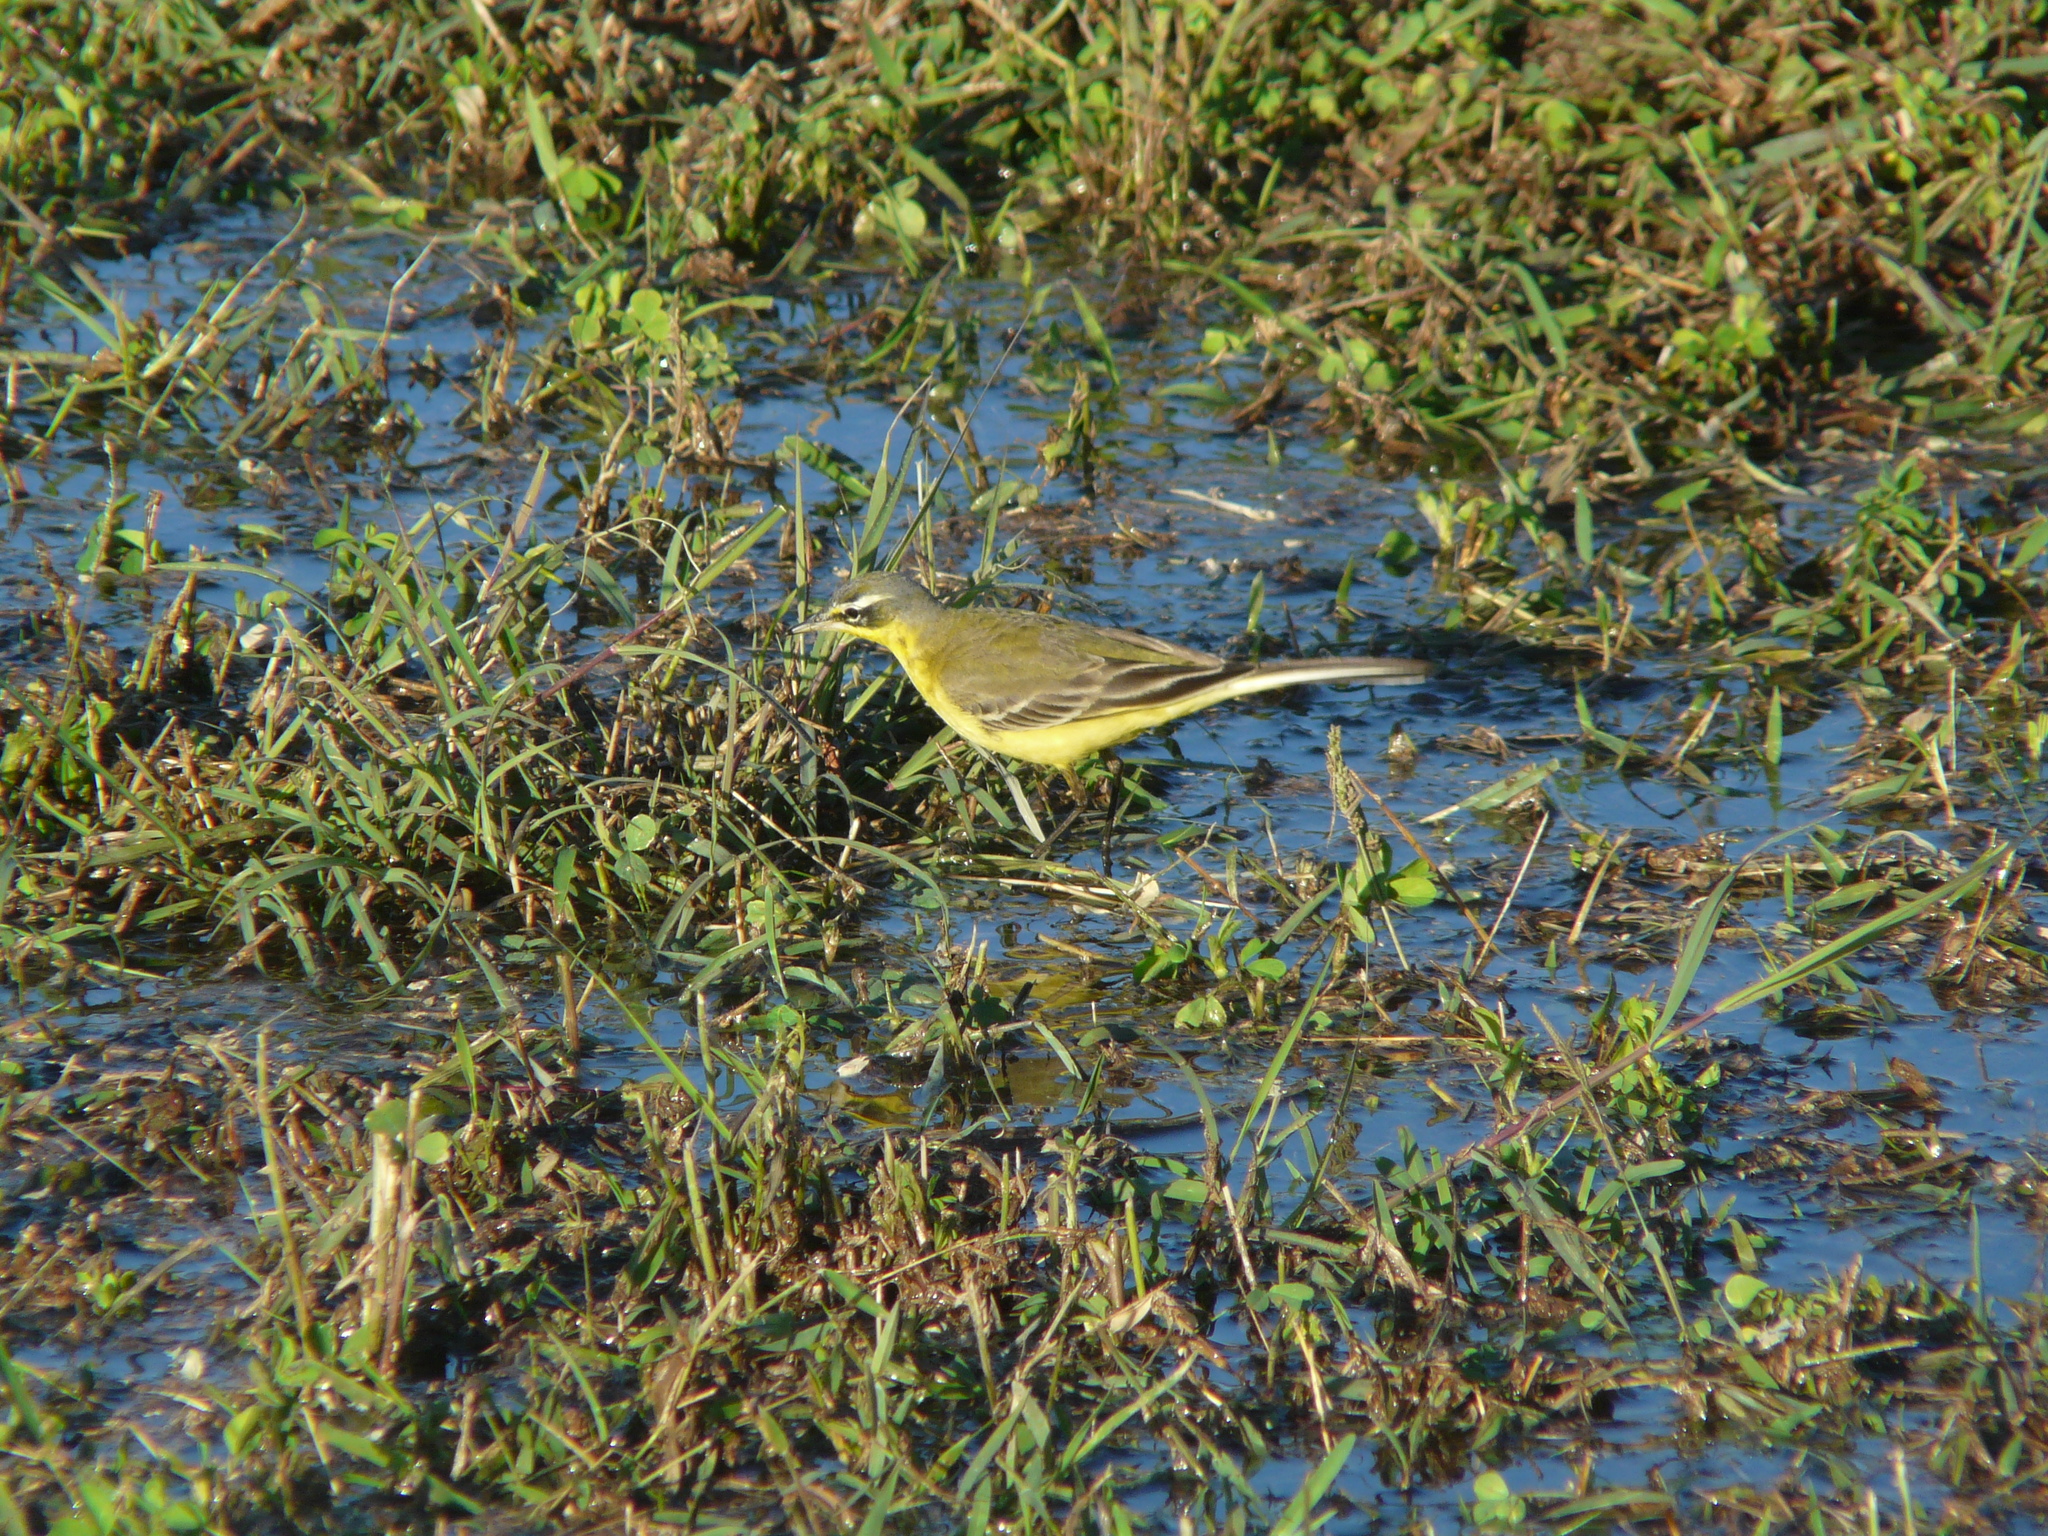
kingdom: Animalia
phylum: Chordata
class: Aves
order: Passeriformes
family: Motacillidae
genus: Motacilla
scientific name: Motacilla flava
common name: Western yellow wagtail
